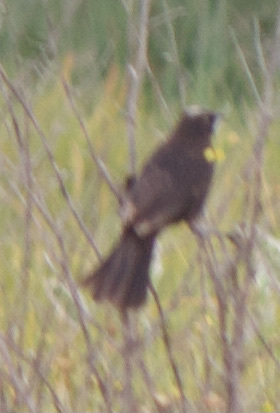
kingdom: Animalia
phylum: Chordata
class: Aves
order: Passeriformes
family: Icteridae
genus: Agelasticus
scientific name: Agelasticus thilius
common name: Yellow-winged blackbird
